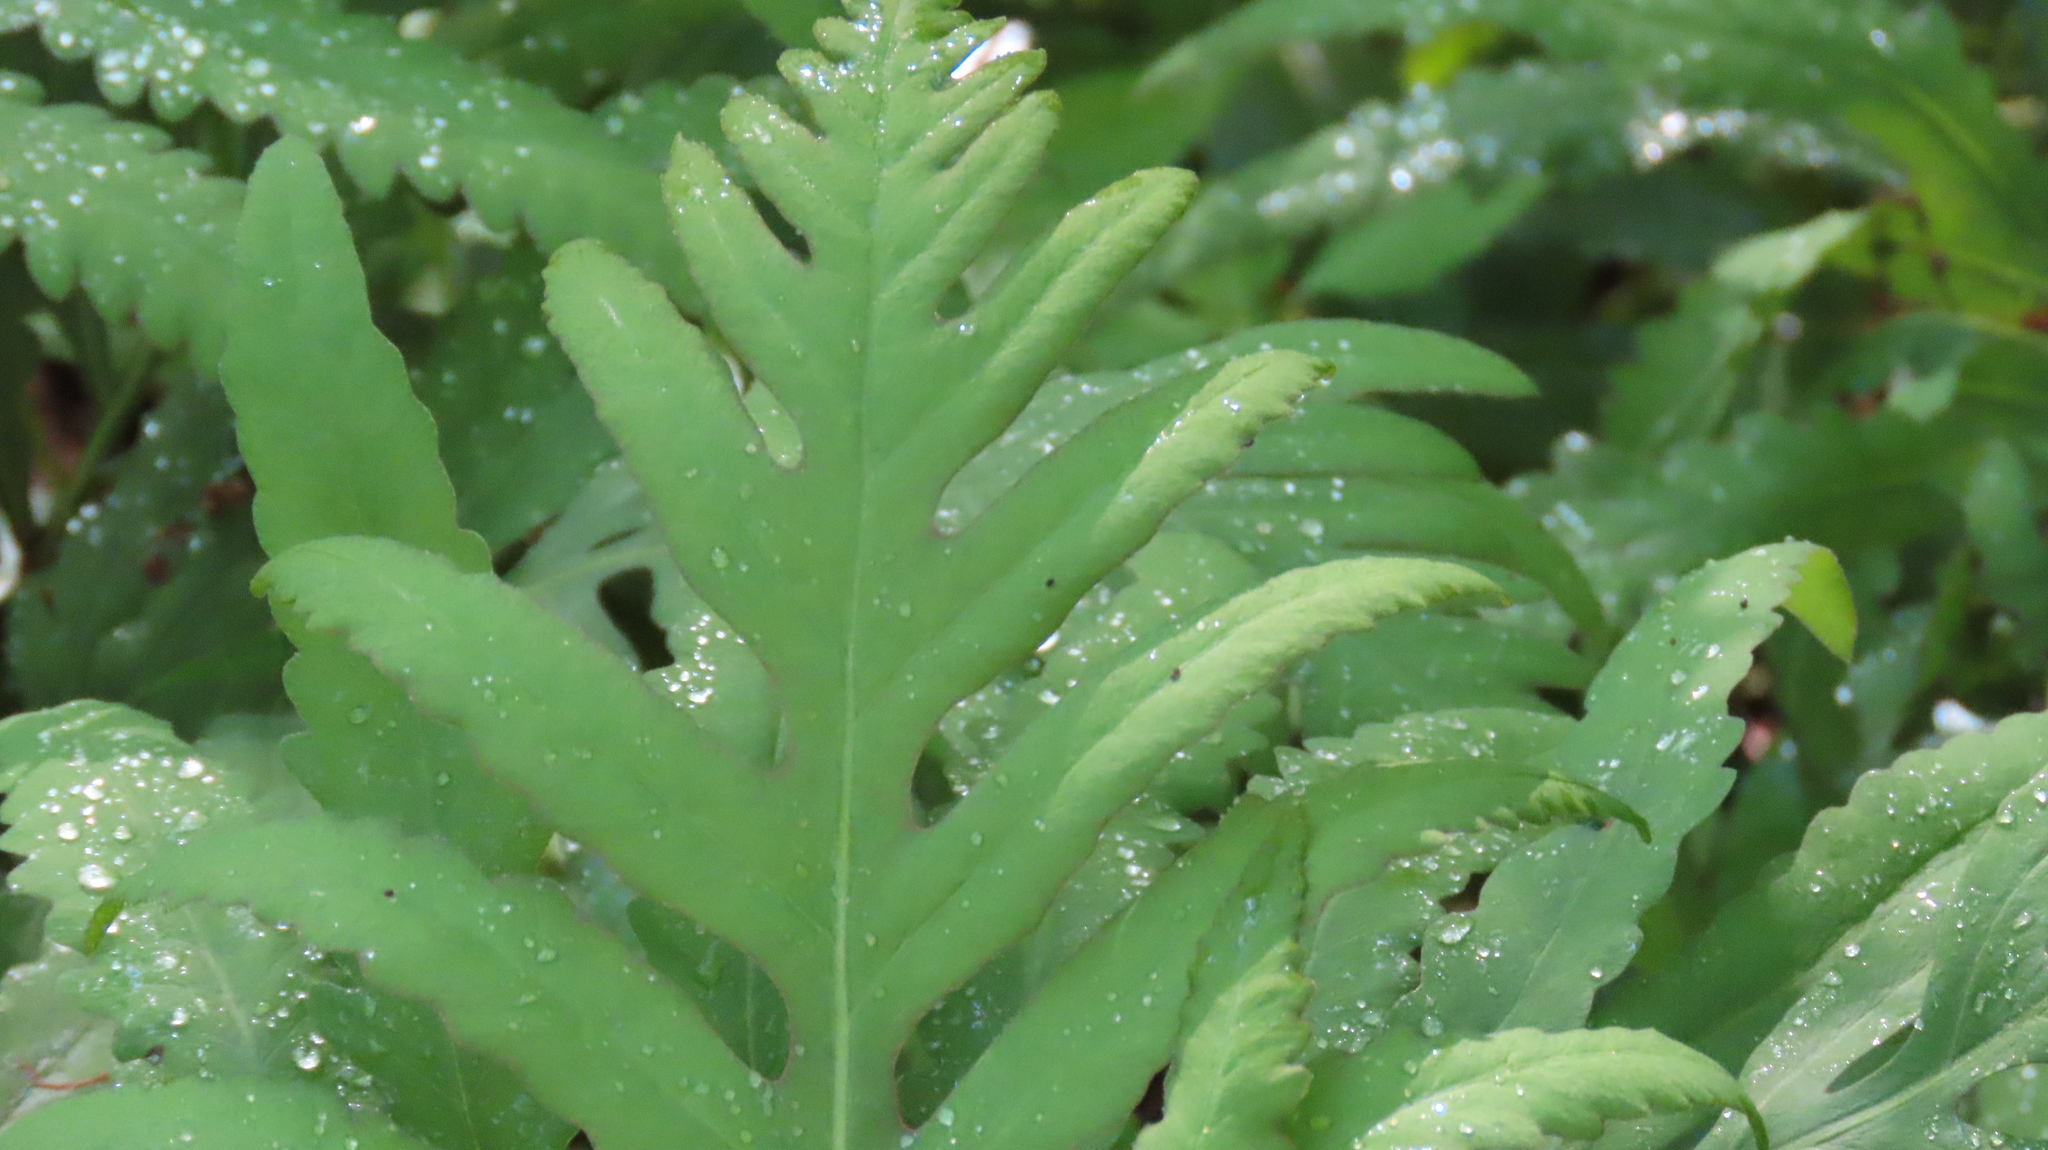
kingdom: Plantae
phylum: Tracheophyta
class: Polypodiopsida
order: Polypodiales
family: Onocleaceae
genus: Onoclea
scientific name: Onoclea sensibilis
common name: Sensitive fern
